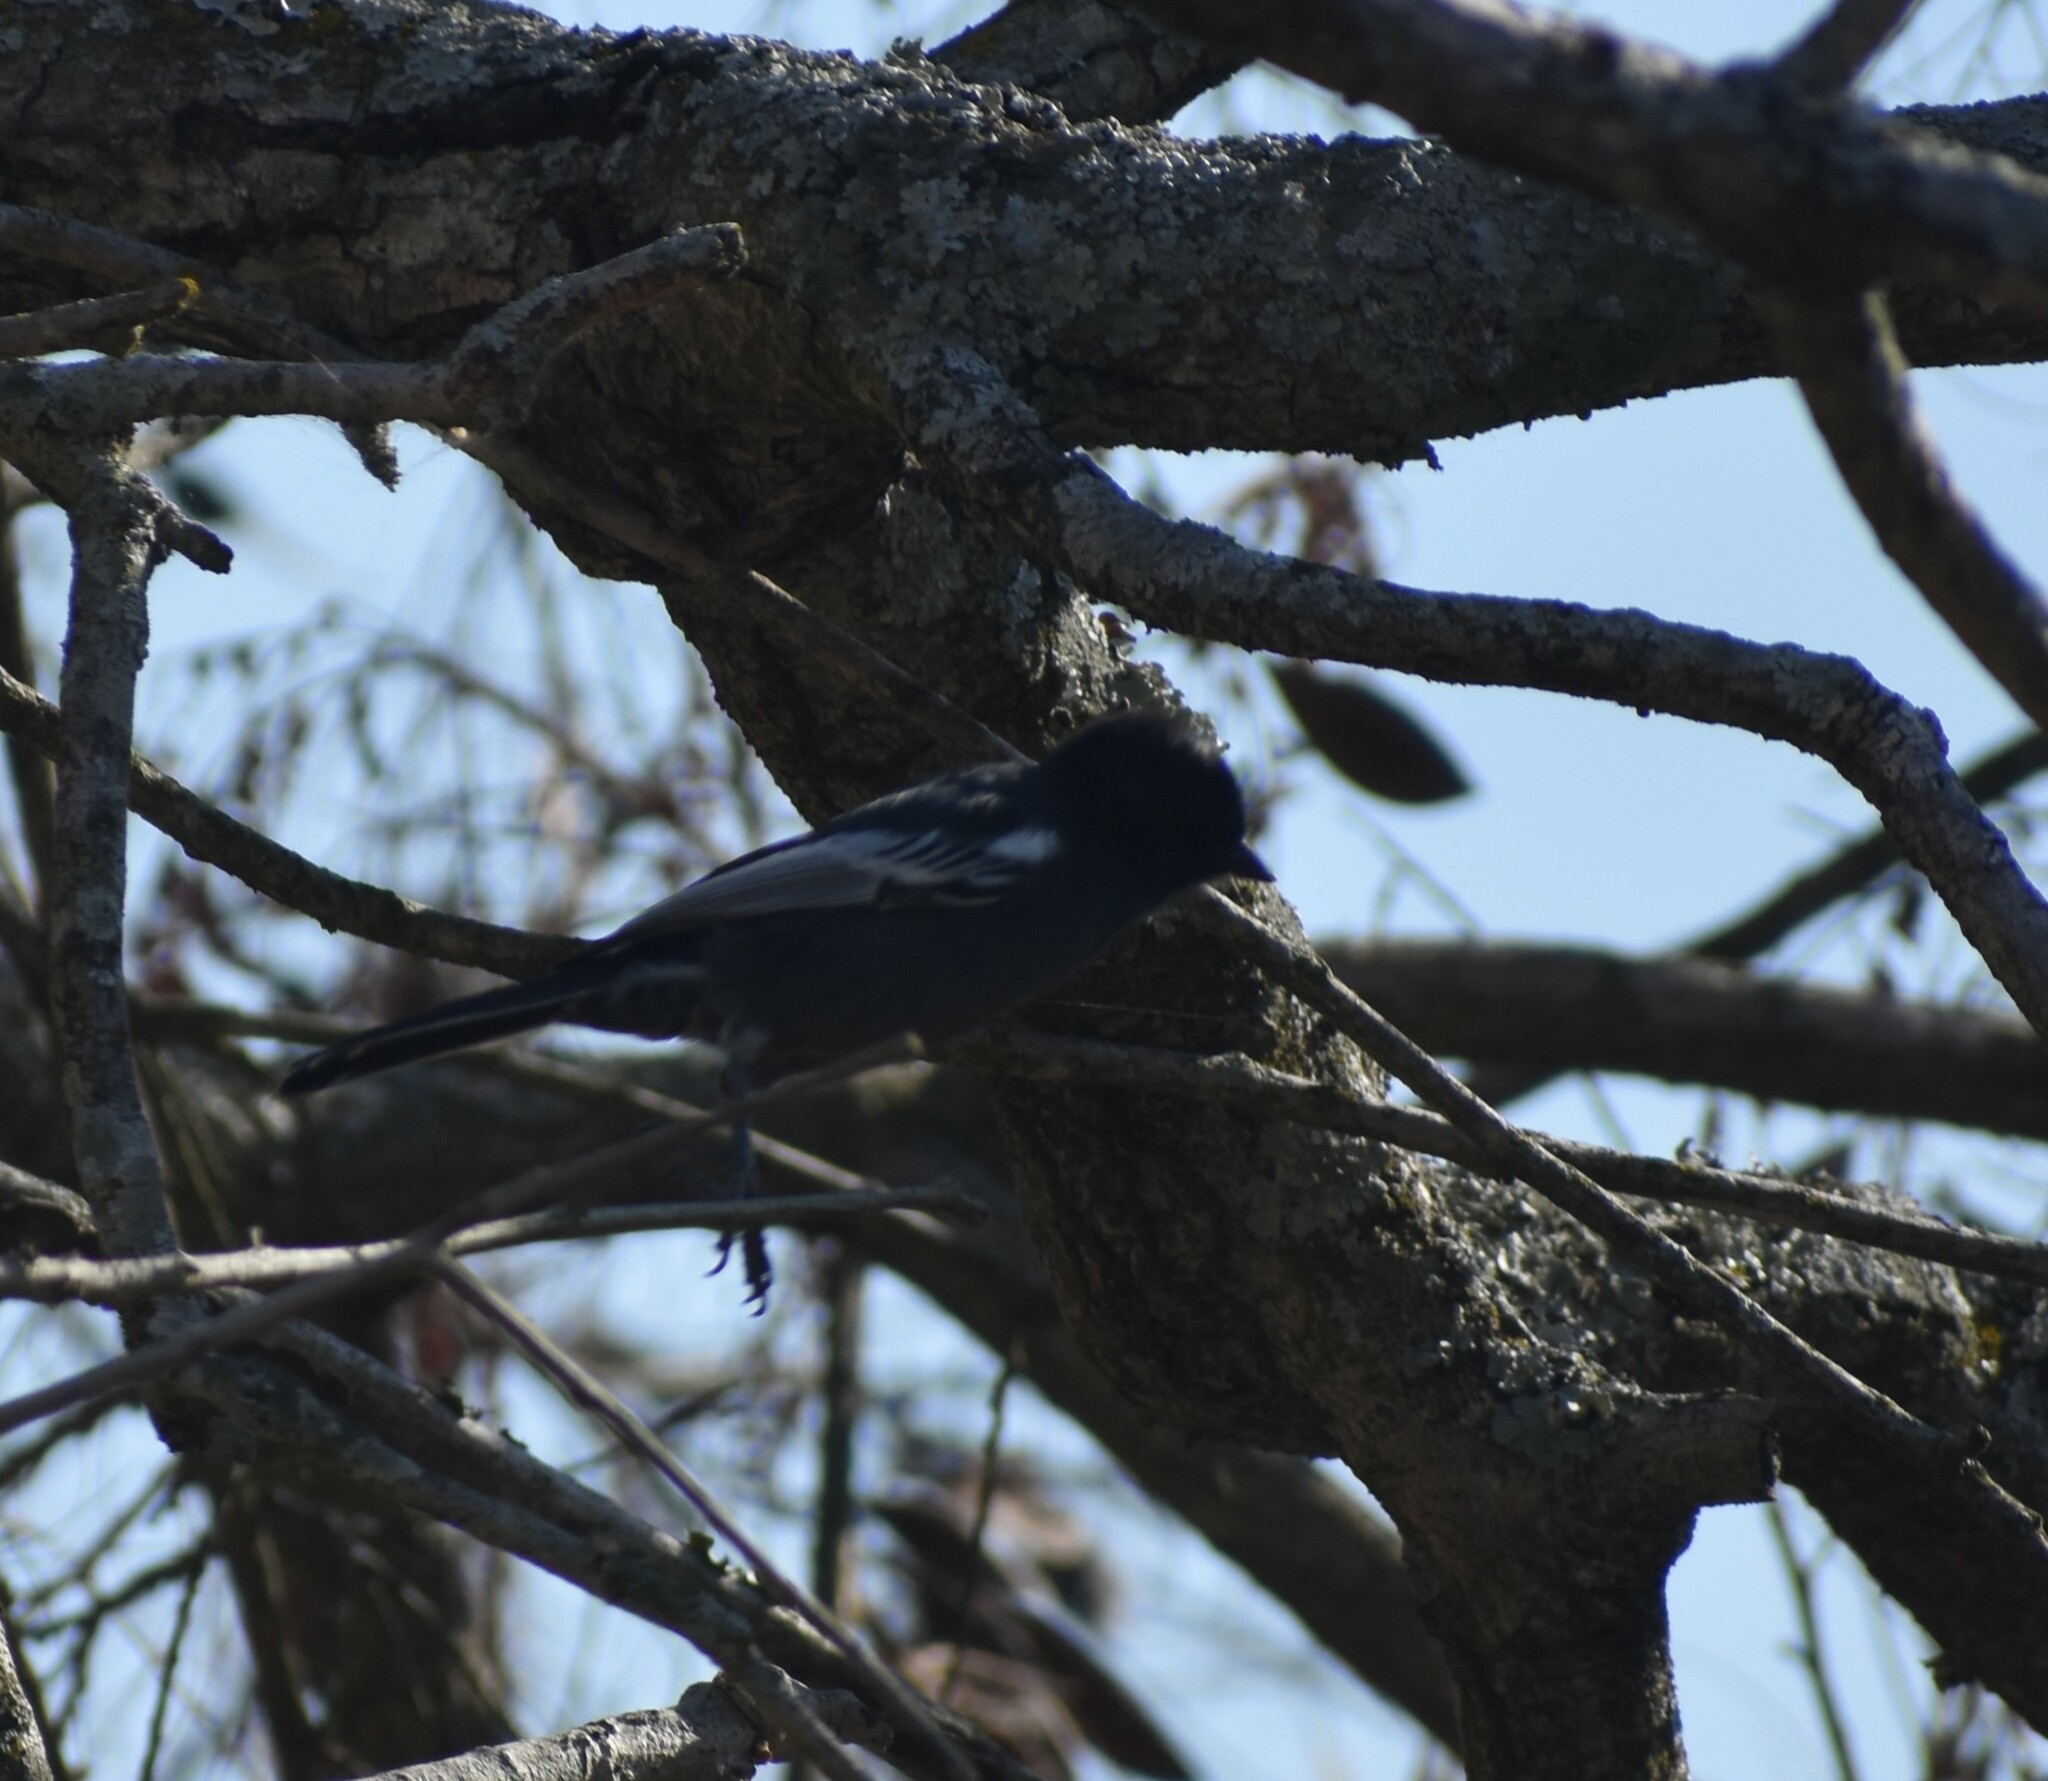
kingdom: Animalia
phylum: Chordata
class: Aves
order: Passeriformes
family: Paridae
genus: Parus
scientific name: Parus niger
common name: Southern black tit
